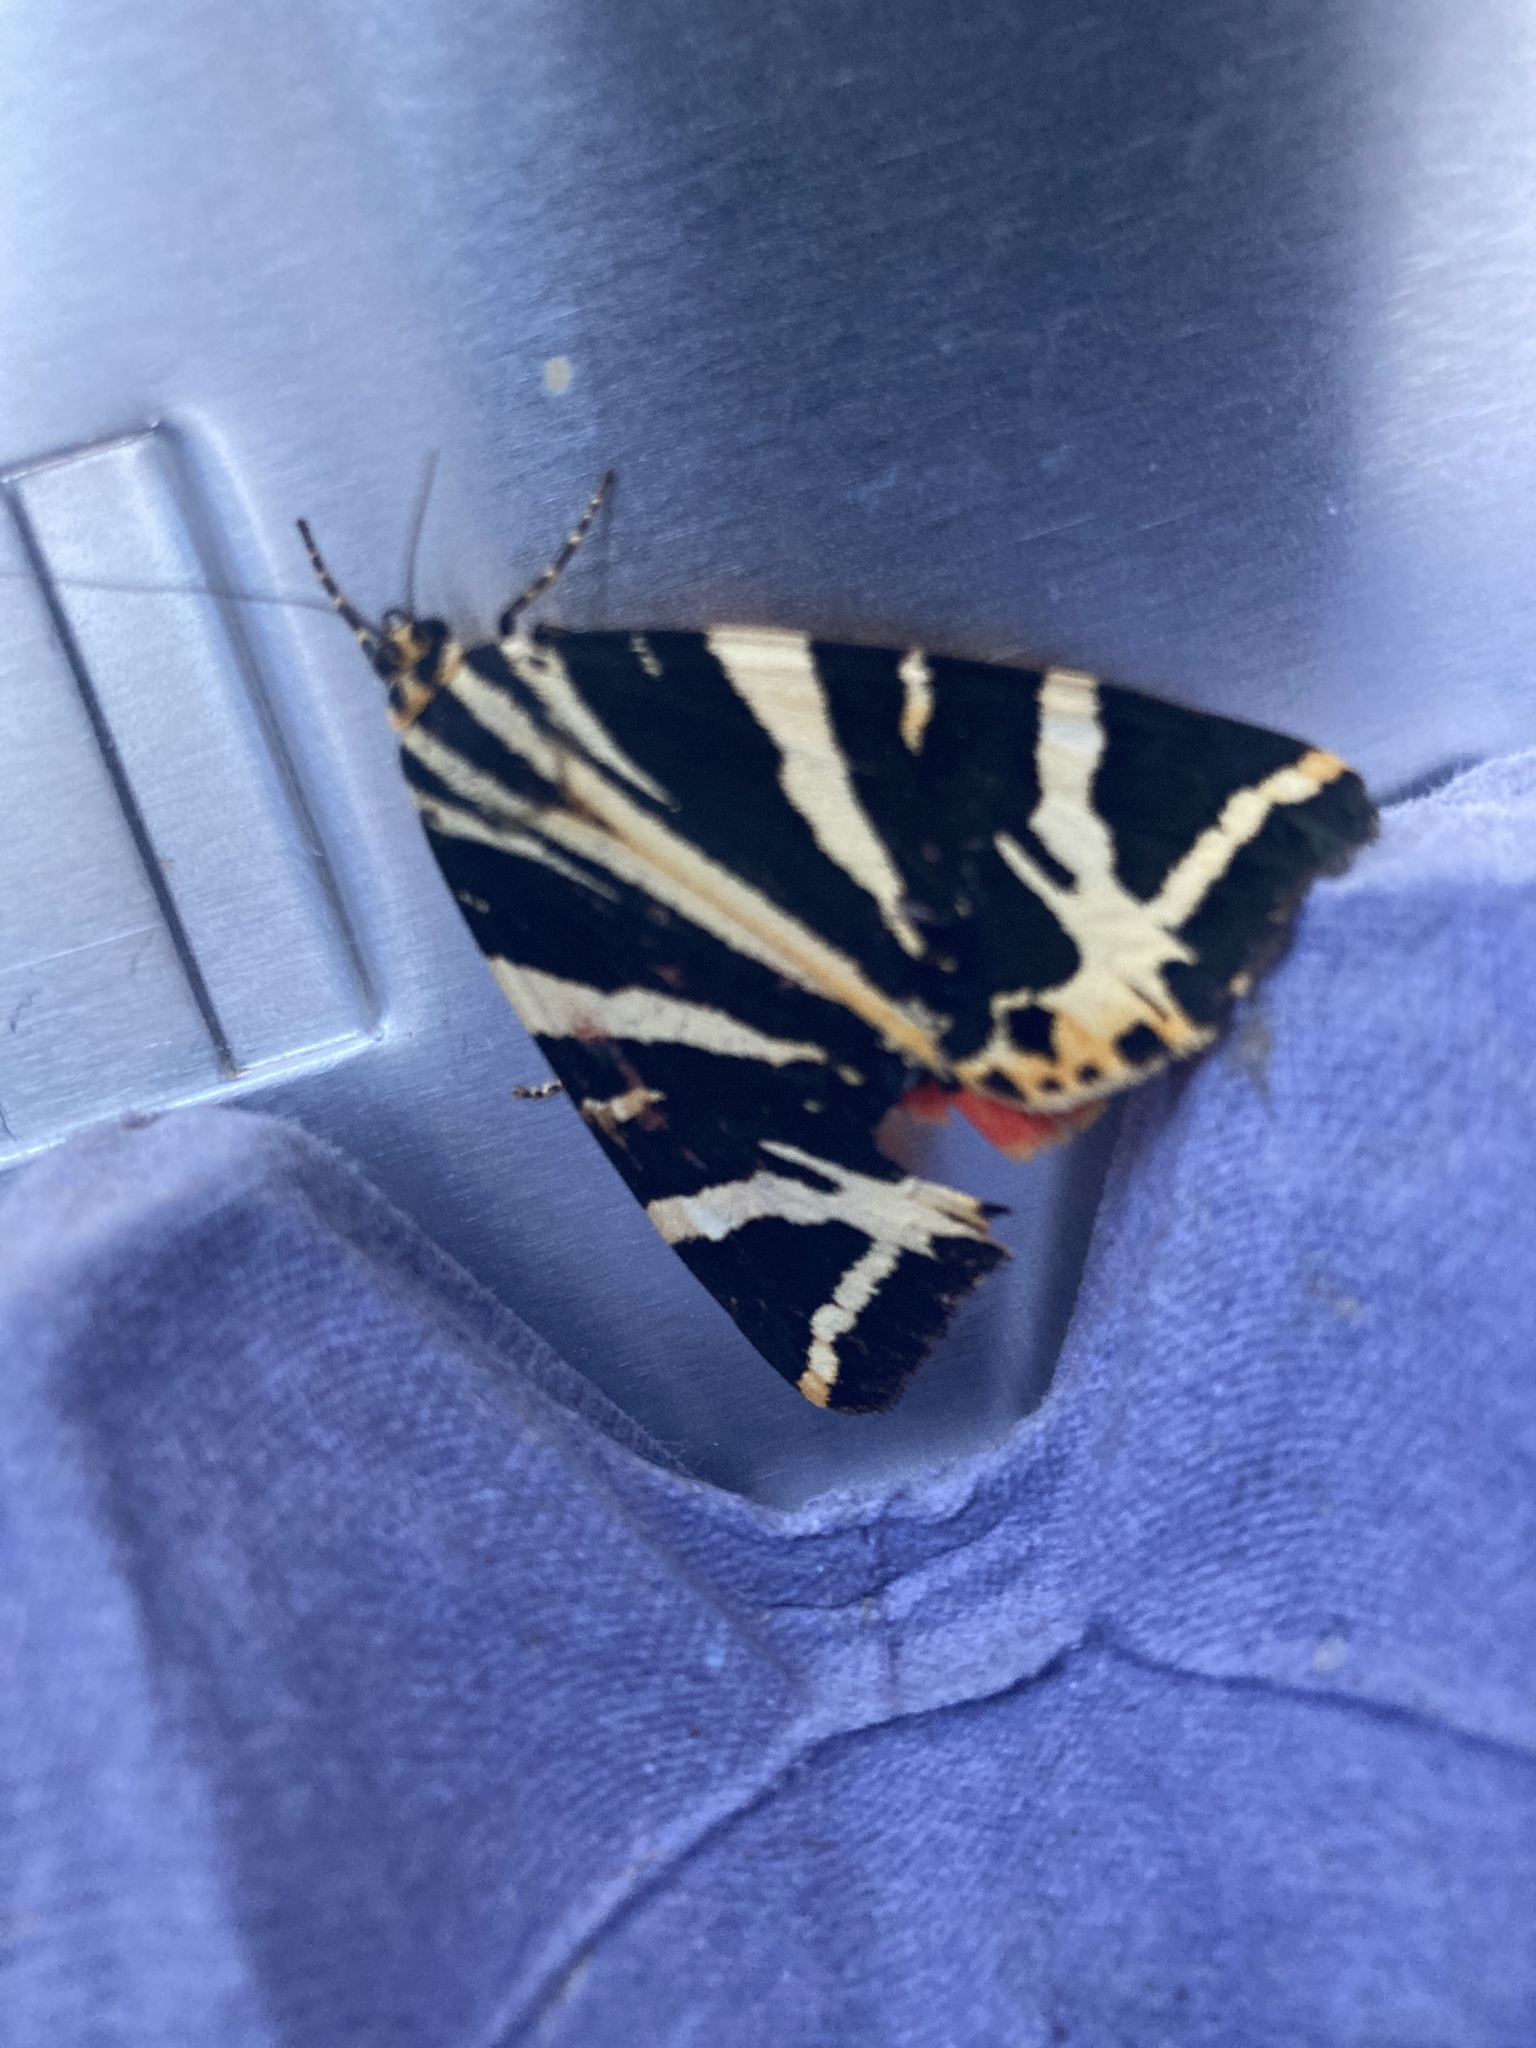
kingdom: Animalia
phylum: Arthropoda
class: Insecta
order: Lepidoptera
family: Erebidae
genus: Euplagia
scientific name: Euplagia quadripunctaria
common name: Jersey tiger
